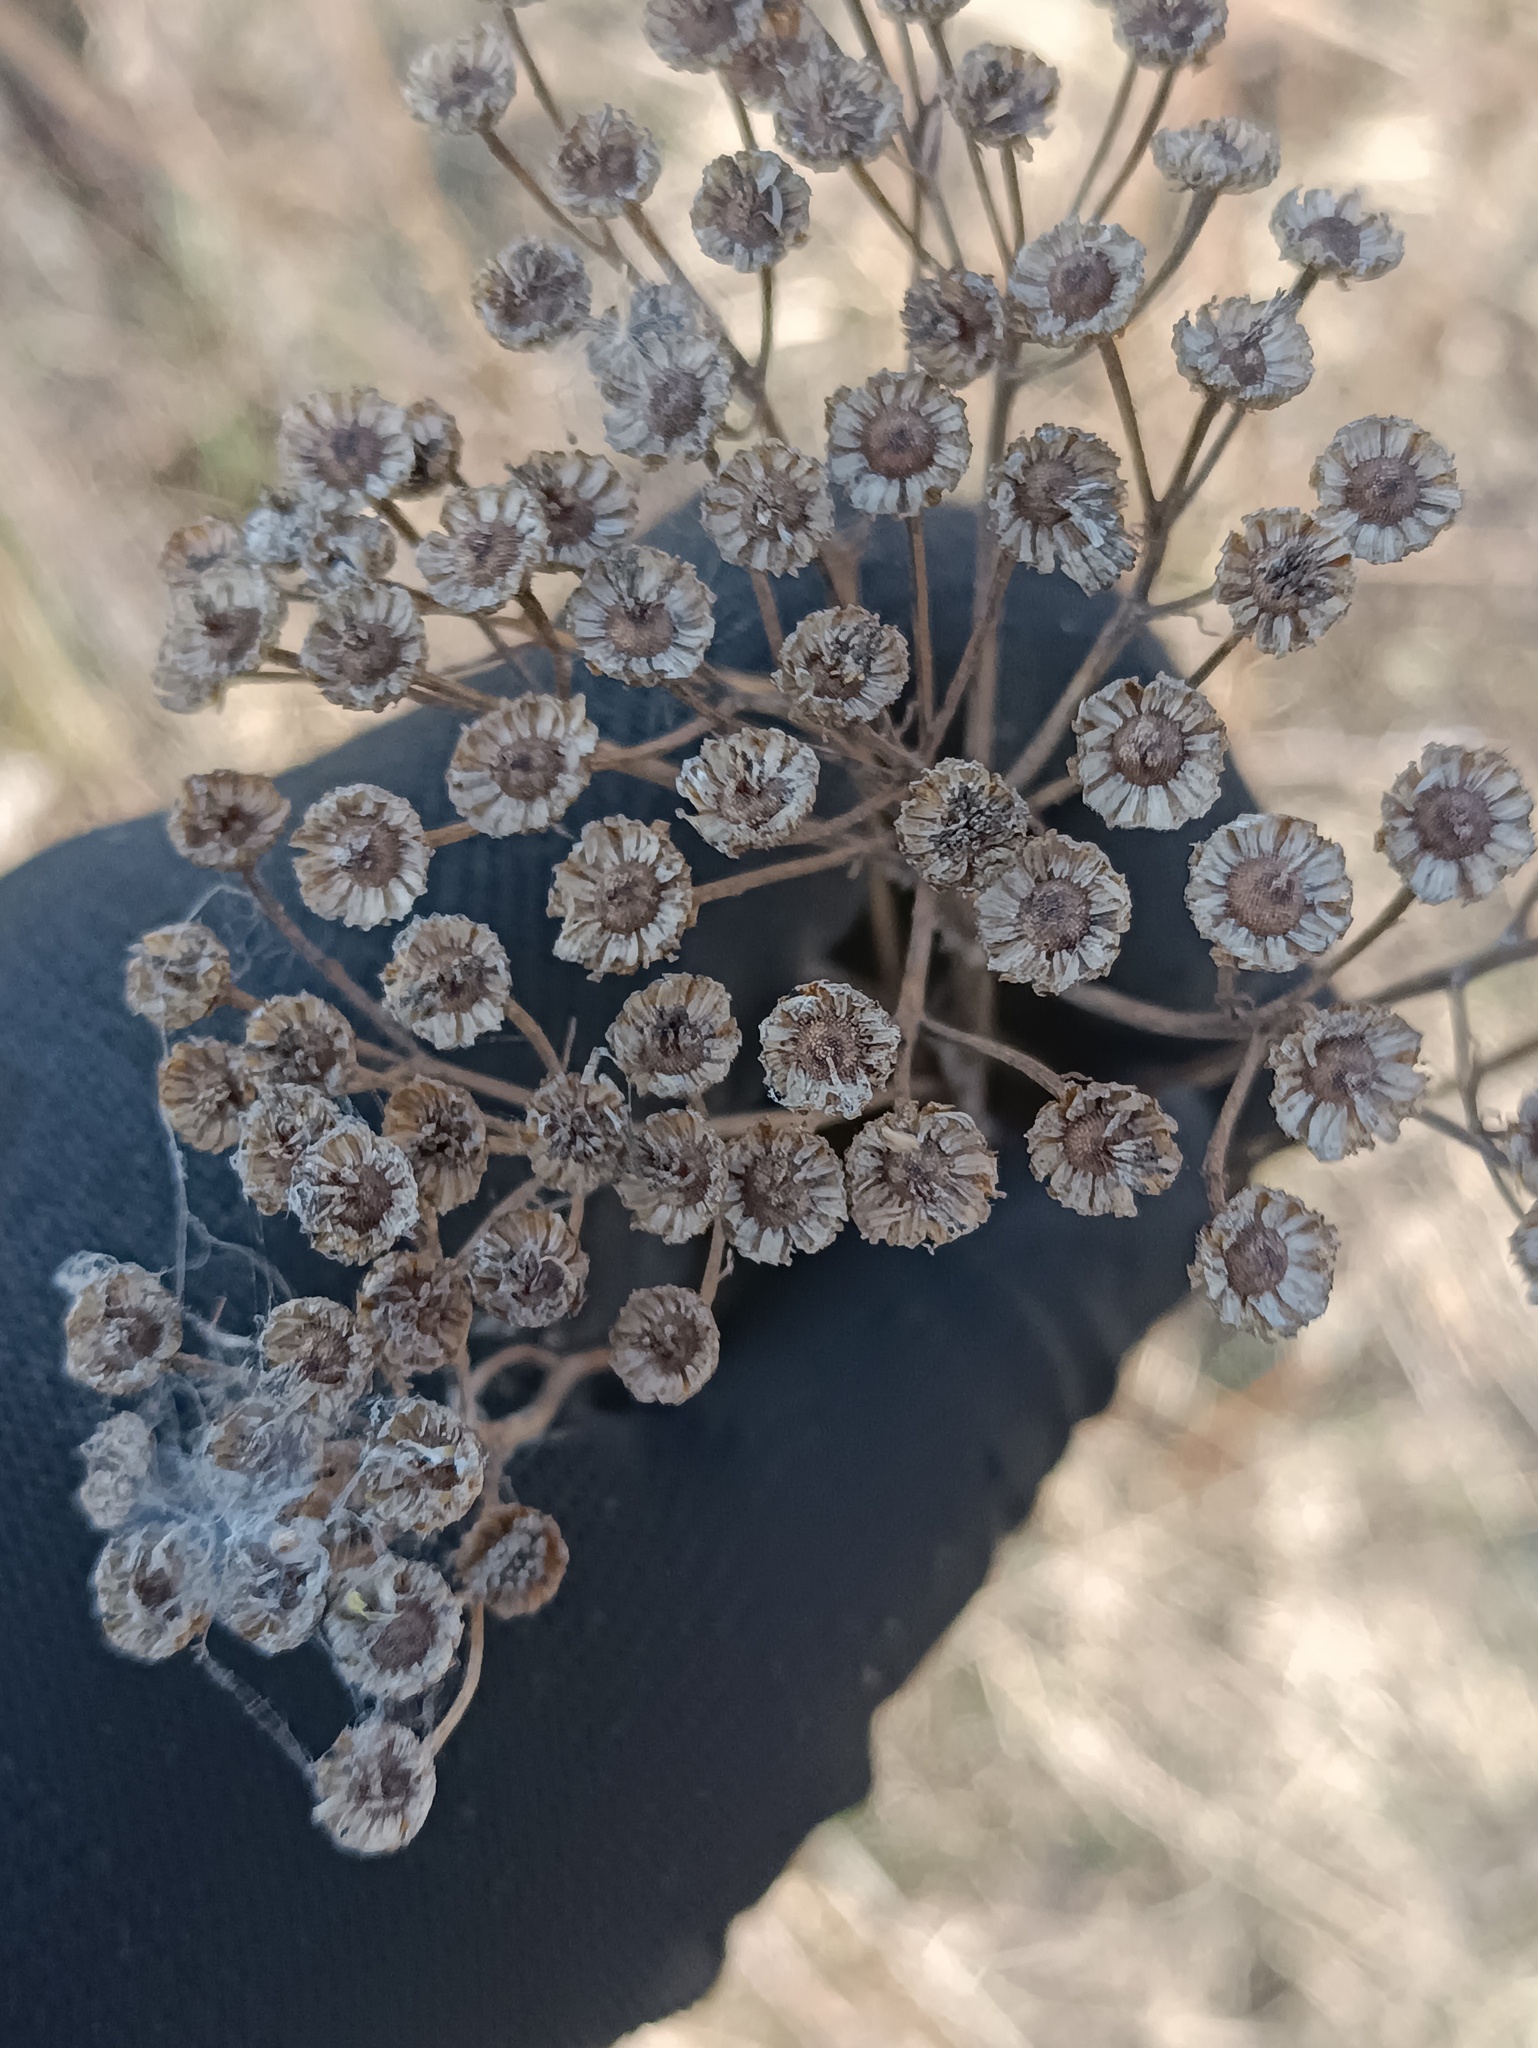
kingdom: Plantae
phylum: Tracheophyta
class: Magnoliopsida
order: Asterales
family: Asteraceae
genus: Tanacetum
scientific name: Tanacetum vulgare
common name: Common tansy
